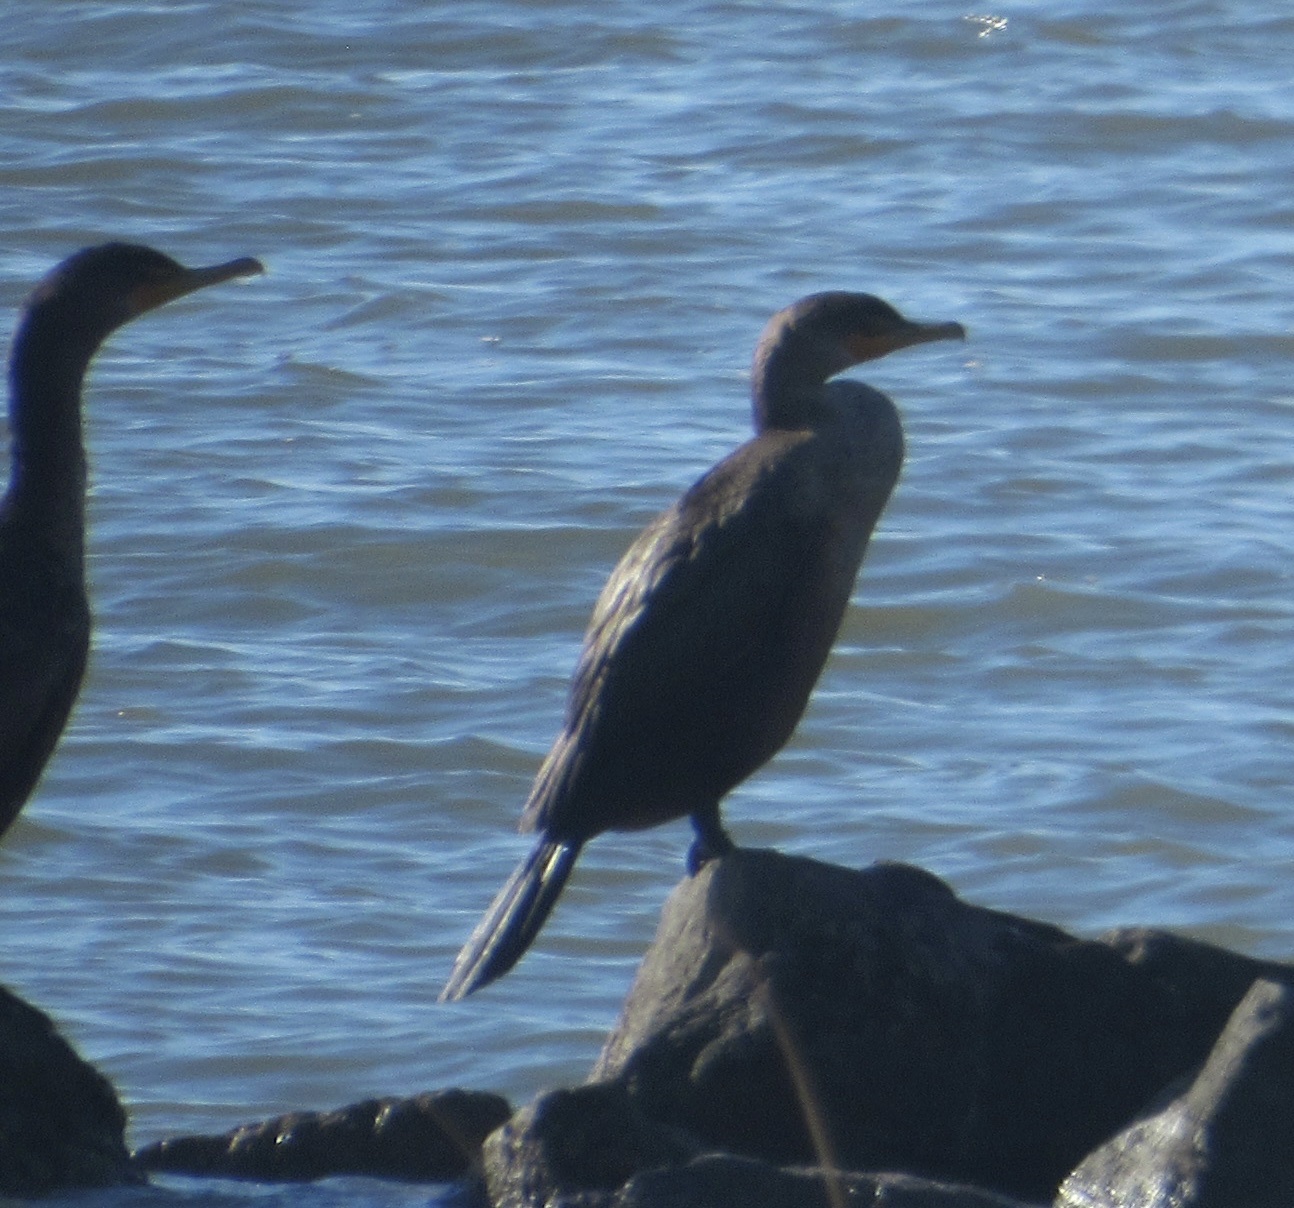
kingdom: Animalia
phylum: Chordata
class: Aves
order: Suliformes
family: Phalacrocoracidae
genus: Phalacrocorax
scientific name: Phalacrocorax auritus
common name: Double-crested cormorant
